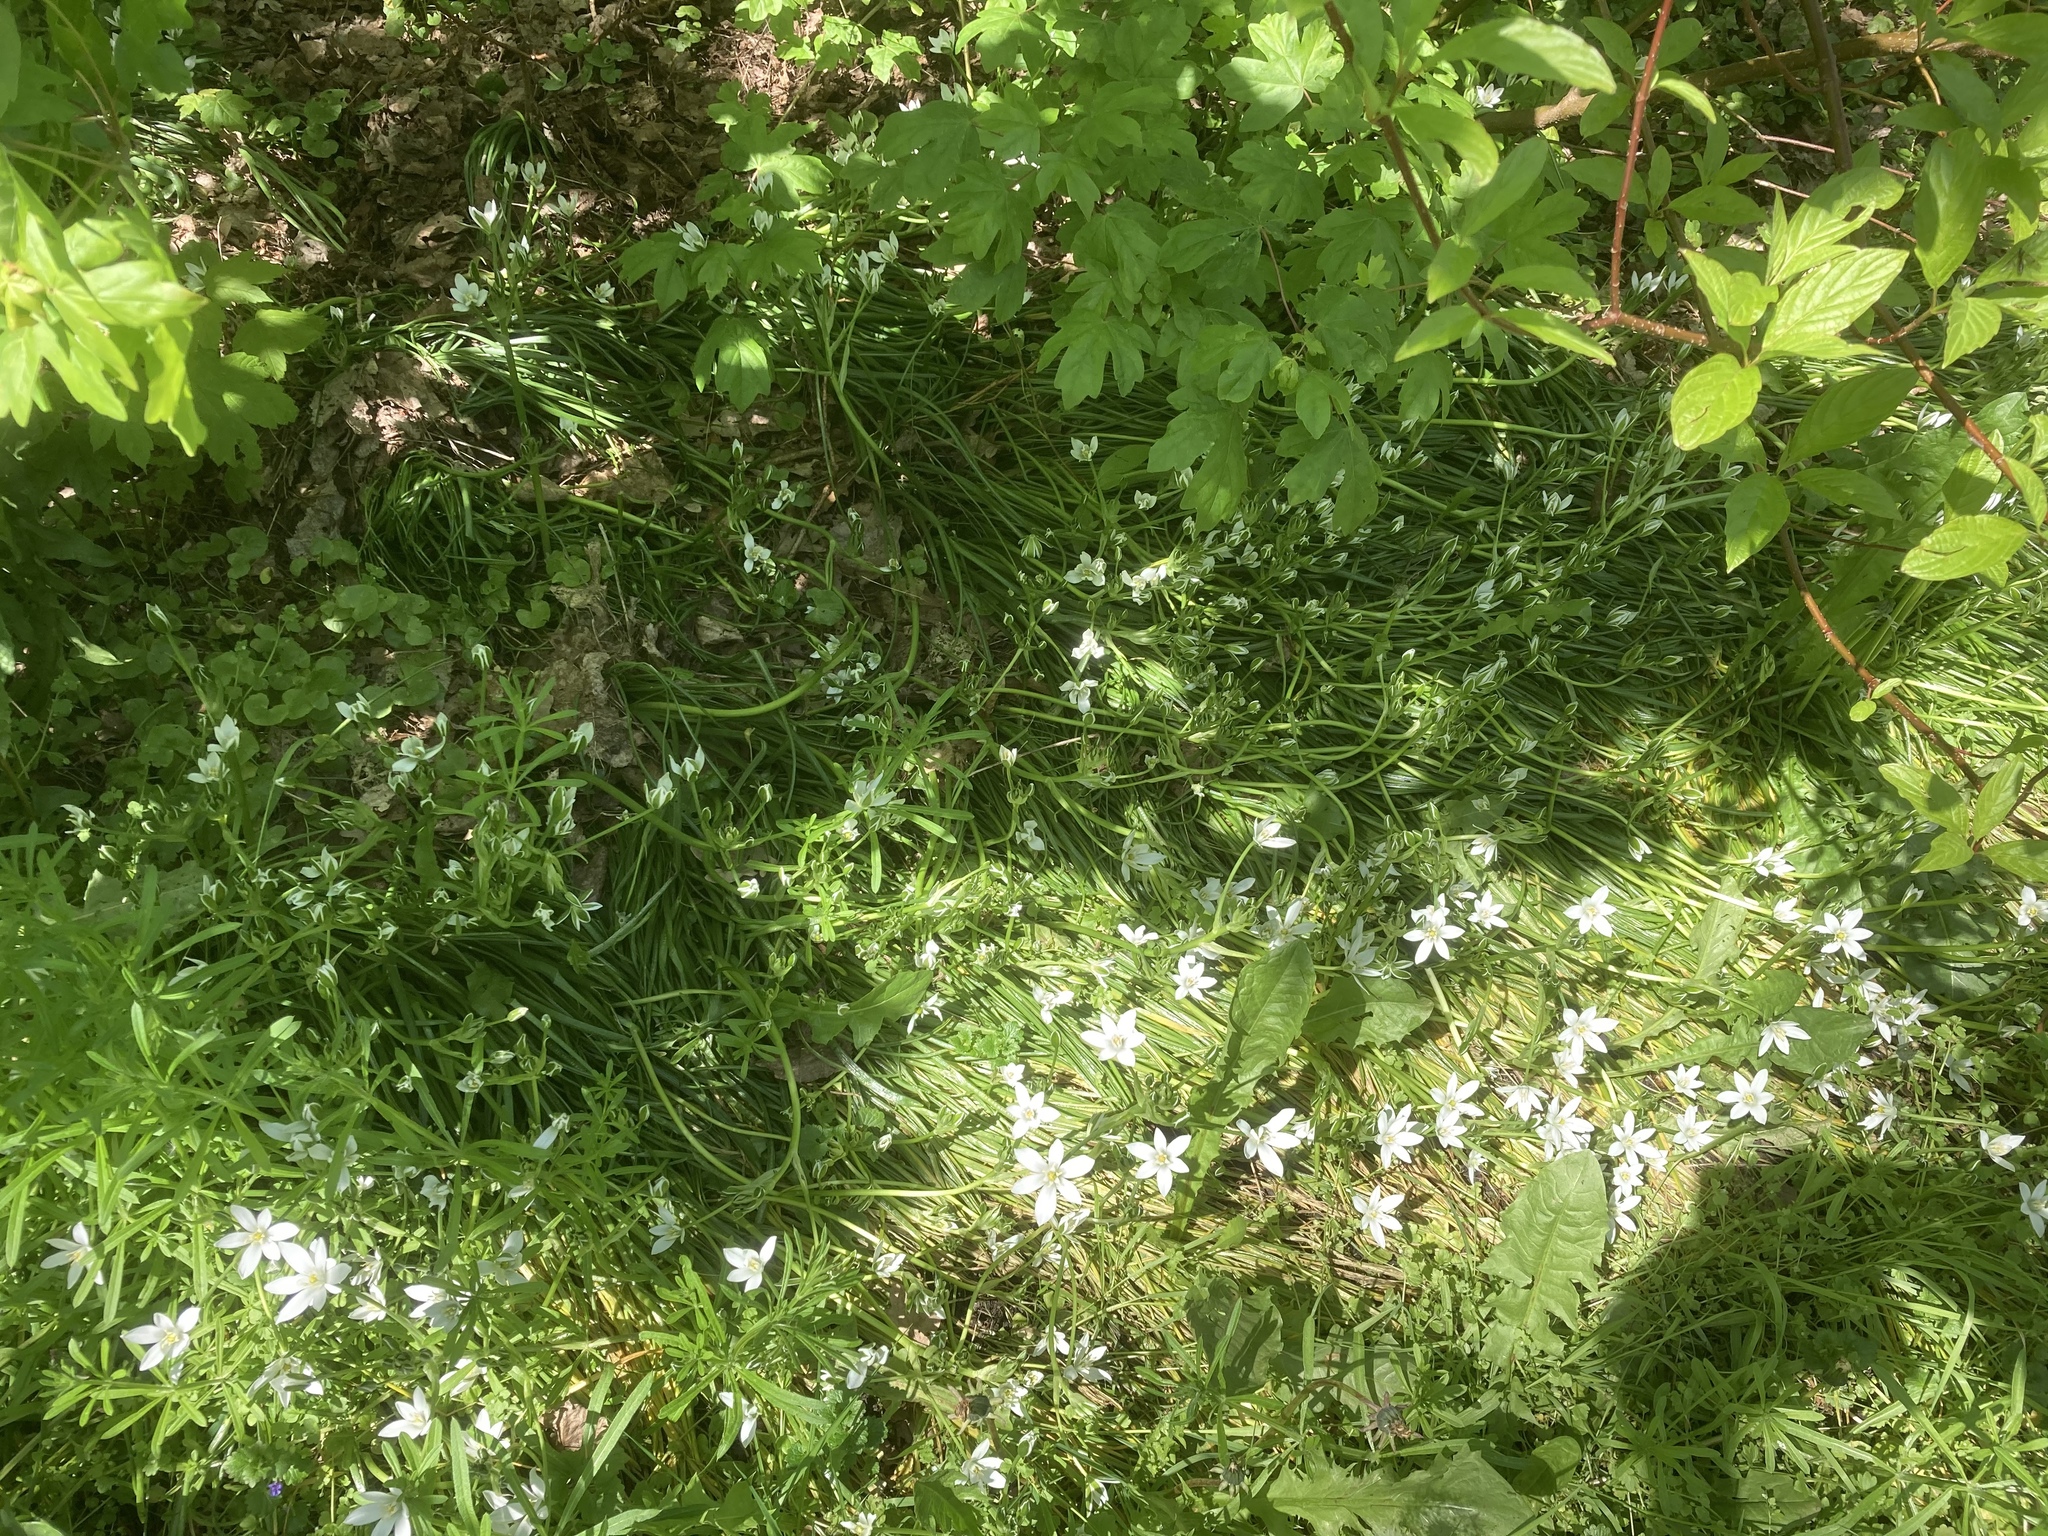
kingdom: Plantae
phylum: Tracheophyta
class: Liliopsida
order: Asparagales
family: Asparagaceae
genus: Ornithogalum
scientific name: Ornithogalum umbellatum
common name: Garden star-of-bethlehem
